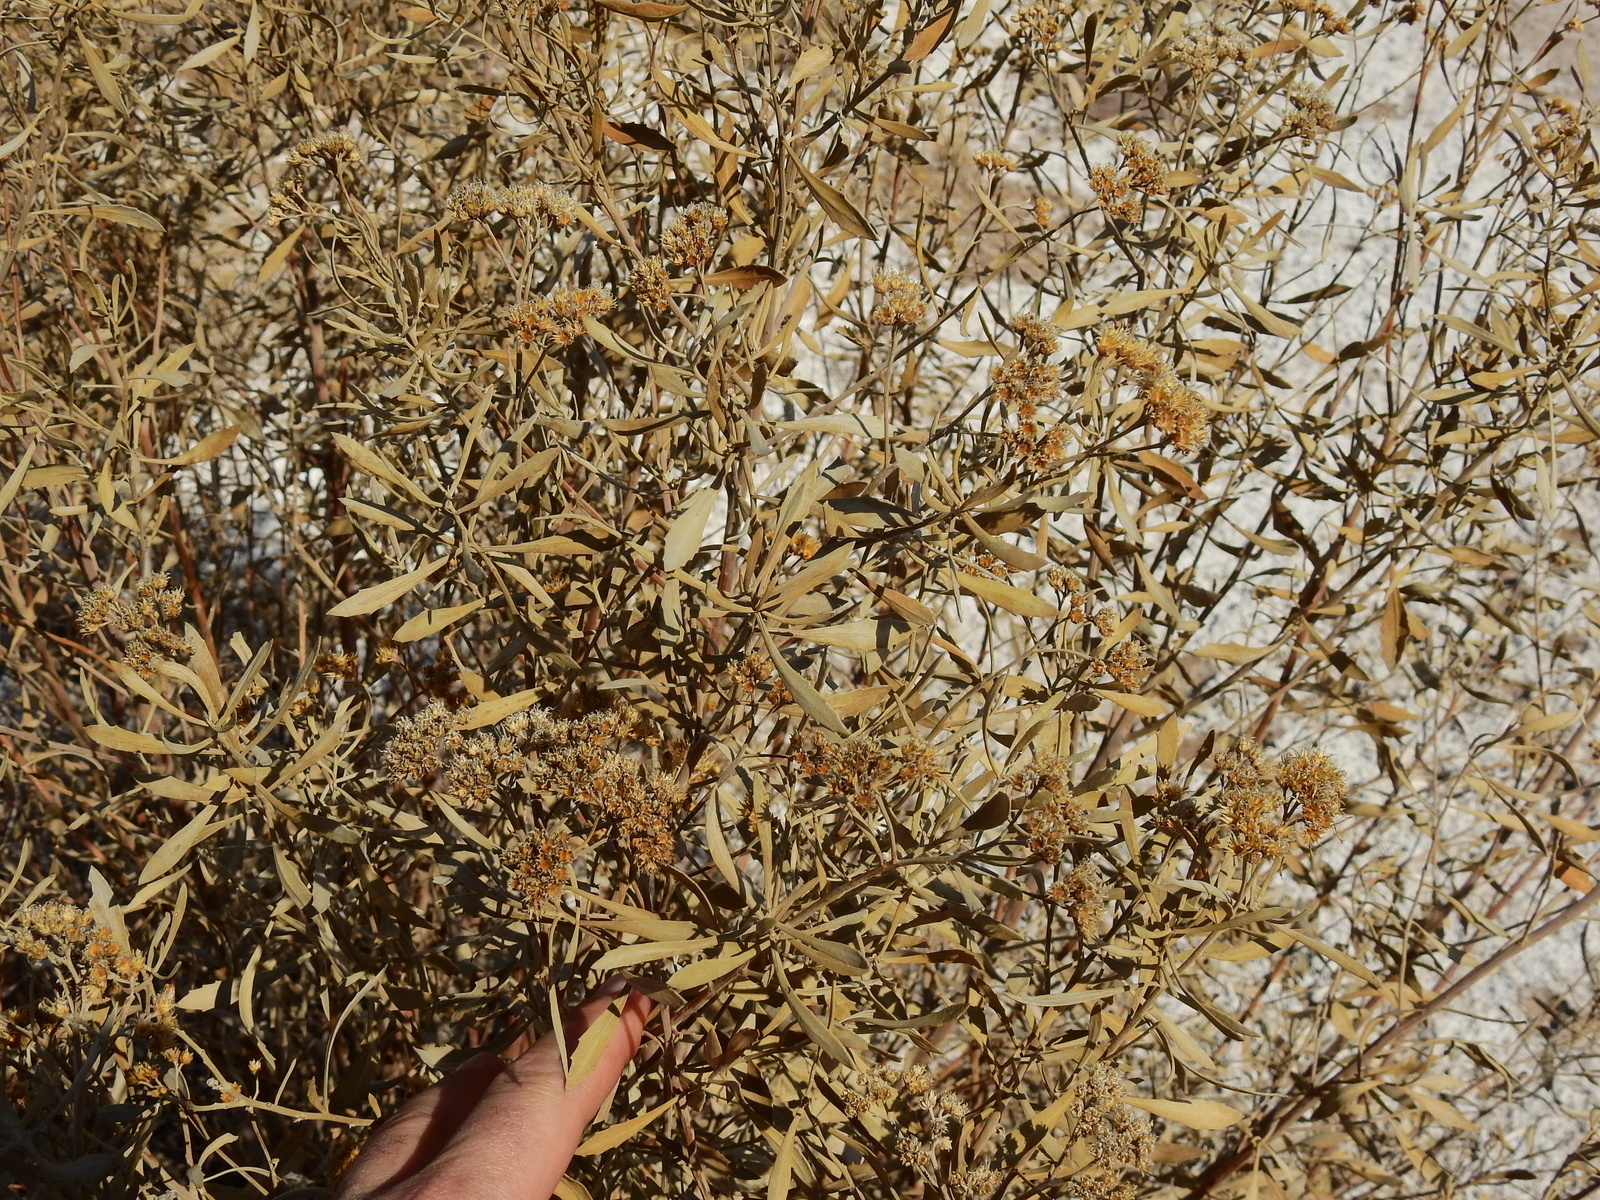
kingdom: Plantae
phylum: Tracheophyta
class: Magnoliopsida
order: Asterales
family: Asteraceae
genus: Tessaria
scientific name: Tessaria absinthioides
